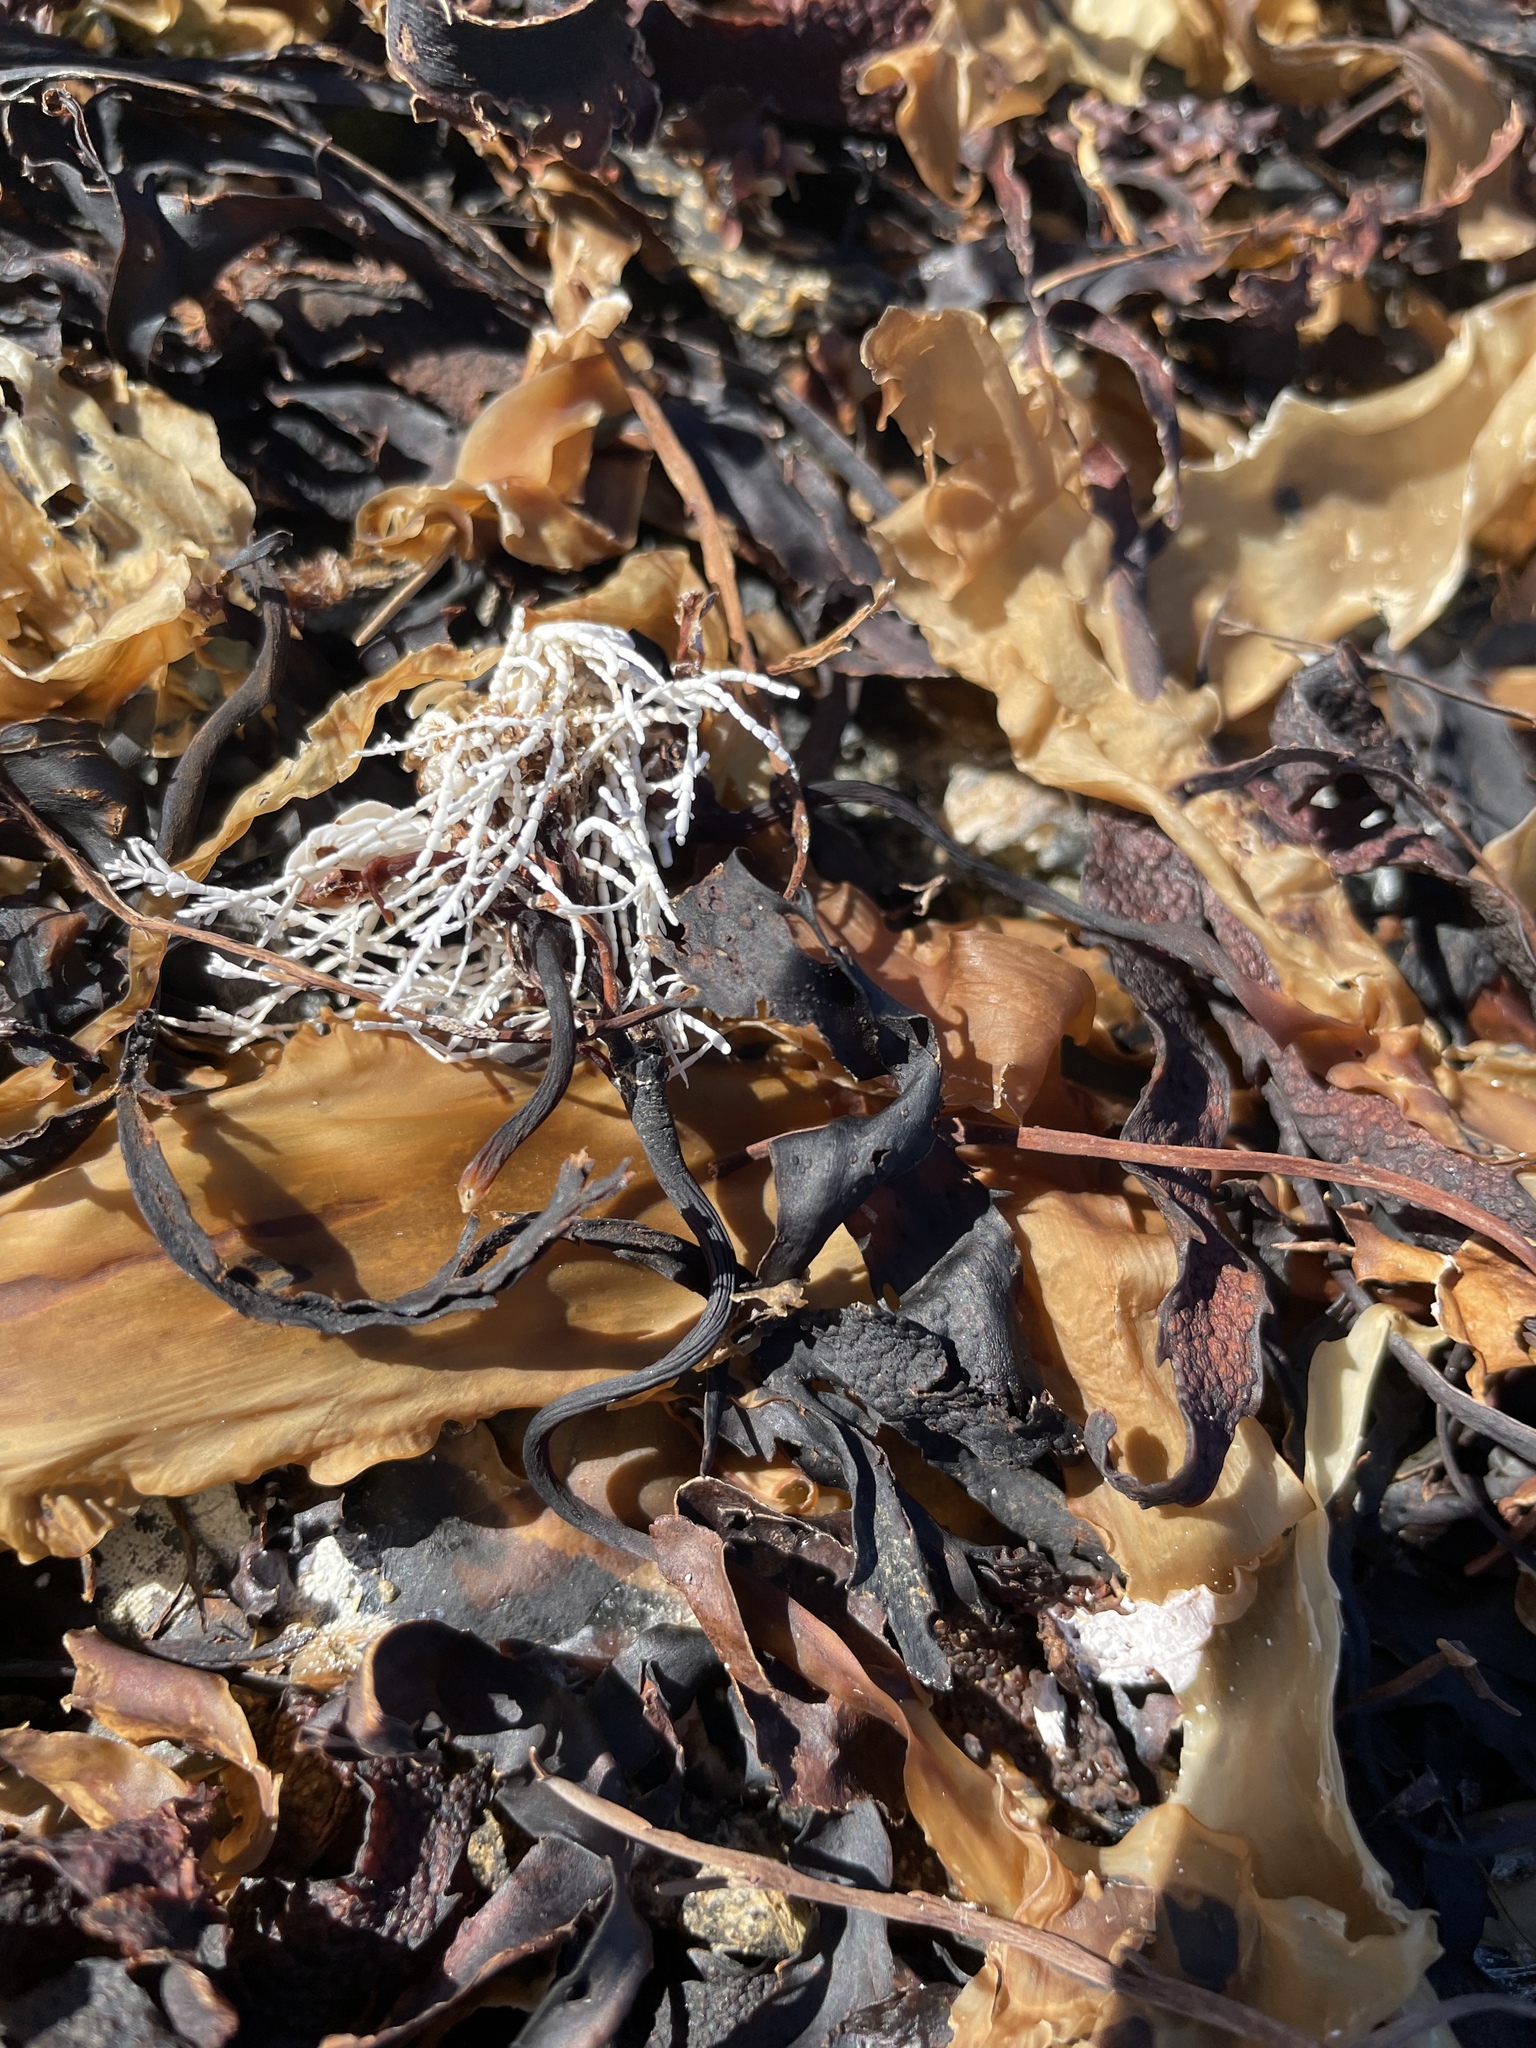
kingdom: Plantae
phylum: Rhodophyta
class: Florideophyceae
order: Corallinales
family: Corallinaceae
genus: Corallina
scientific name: Corallina officinalis
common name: Coral weed
